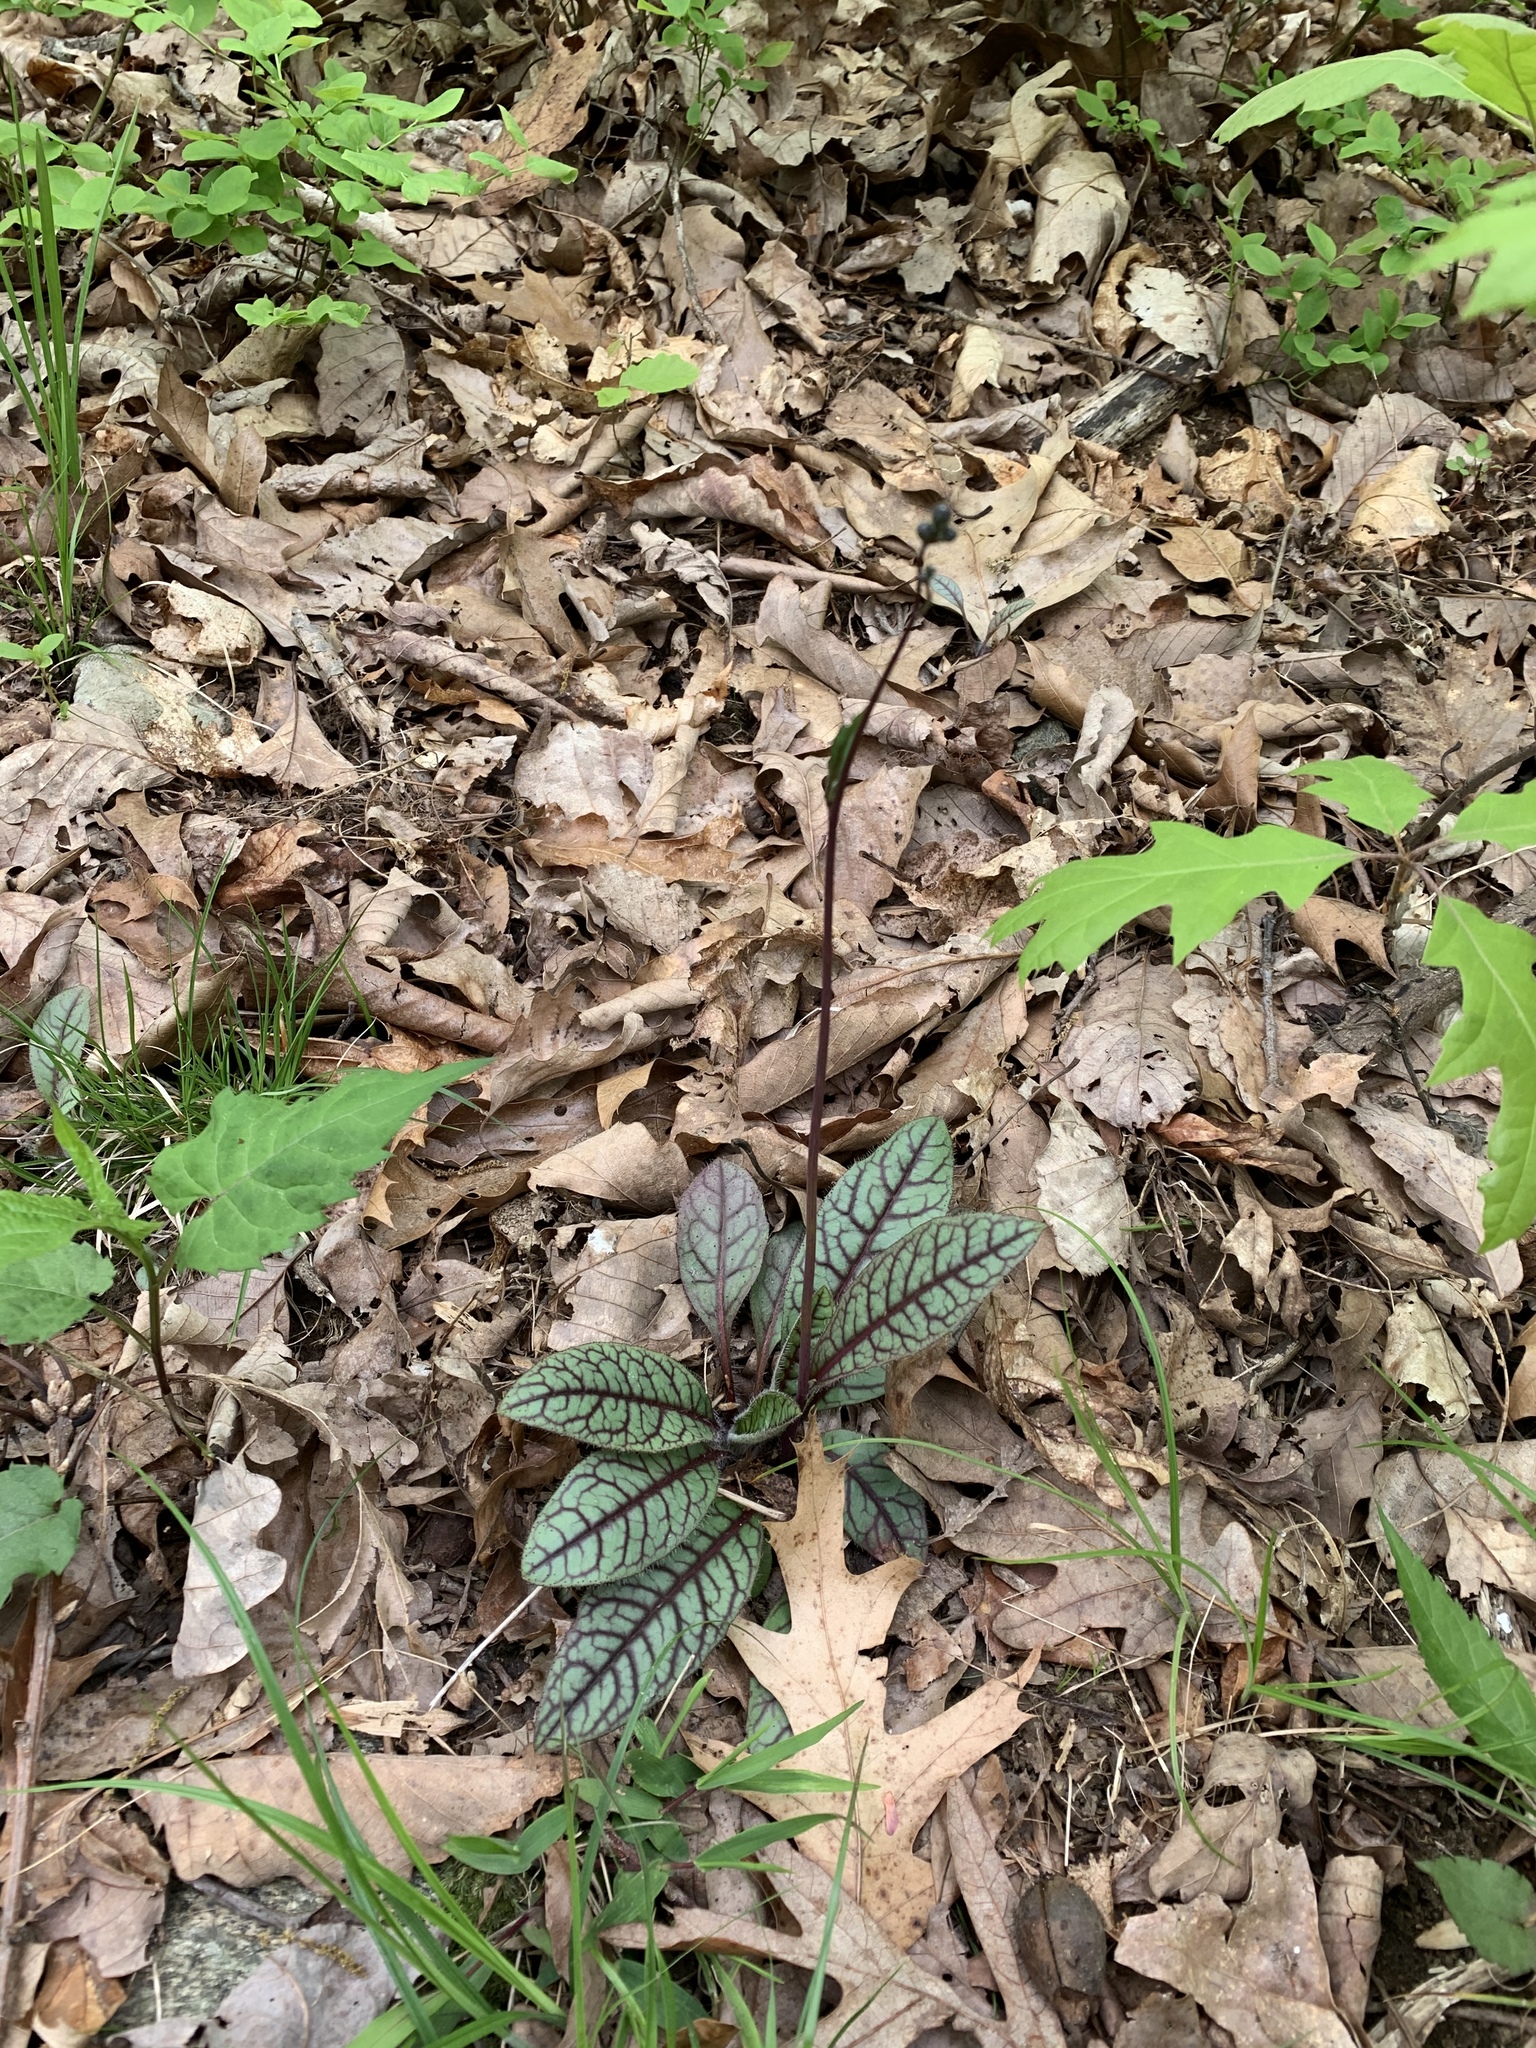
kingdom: Plantae
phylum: Tracheophyta
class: Magnoliopsida
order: Asterales
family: Asteraceae
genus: Hieracium
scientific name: Hieracium venosum
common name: Rattlesnake hawkweed
